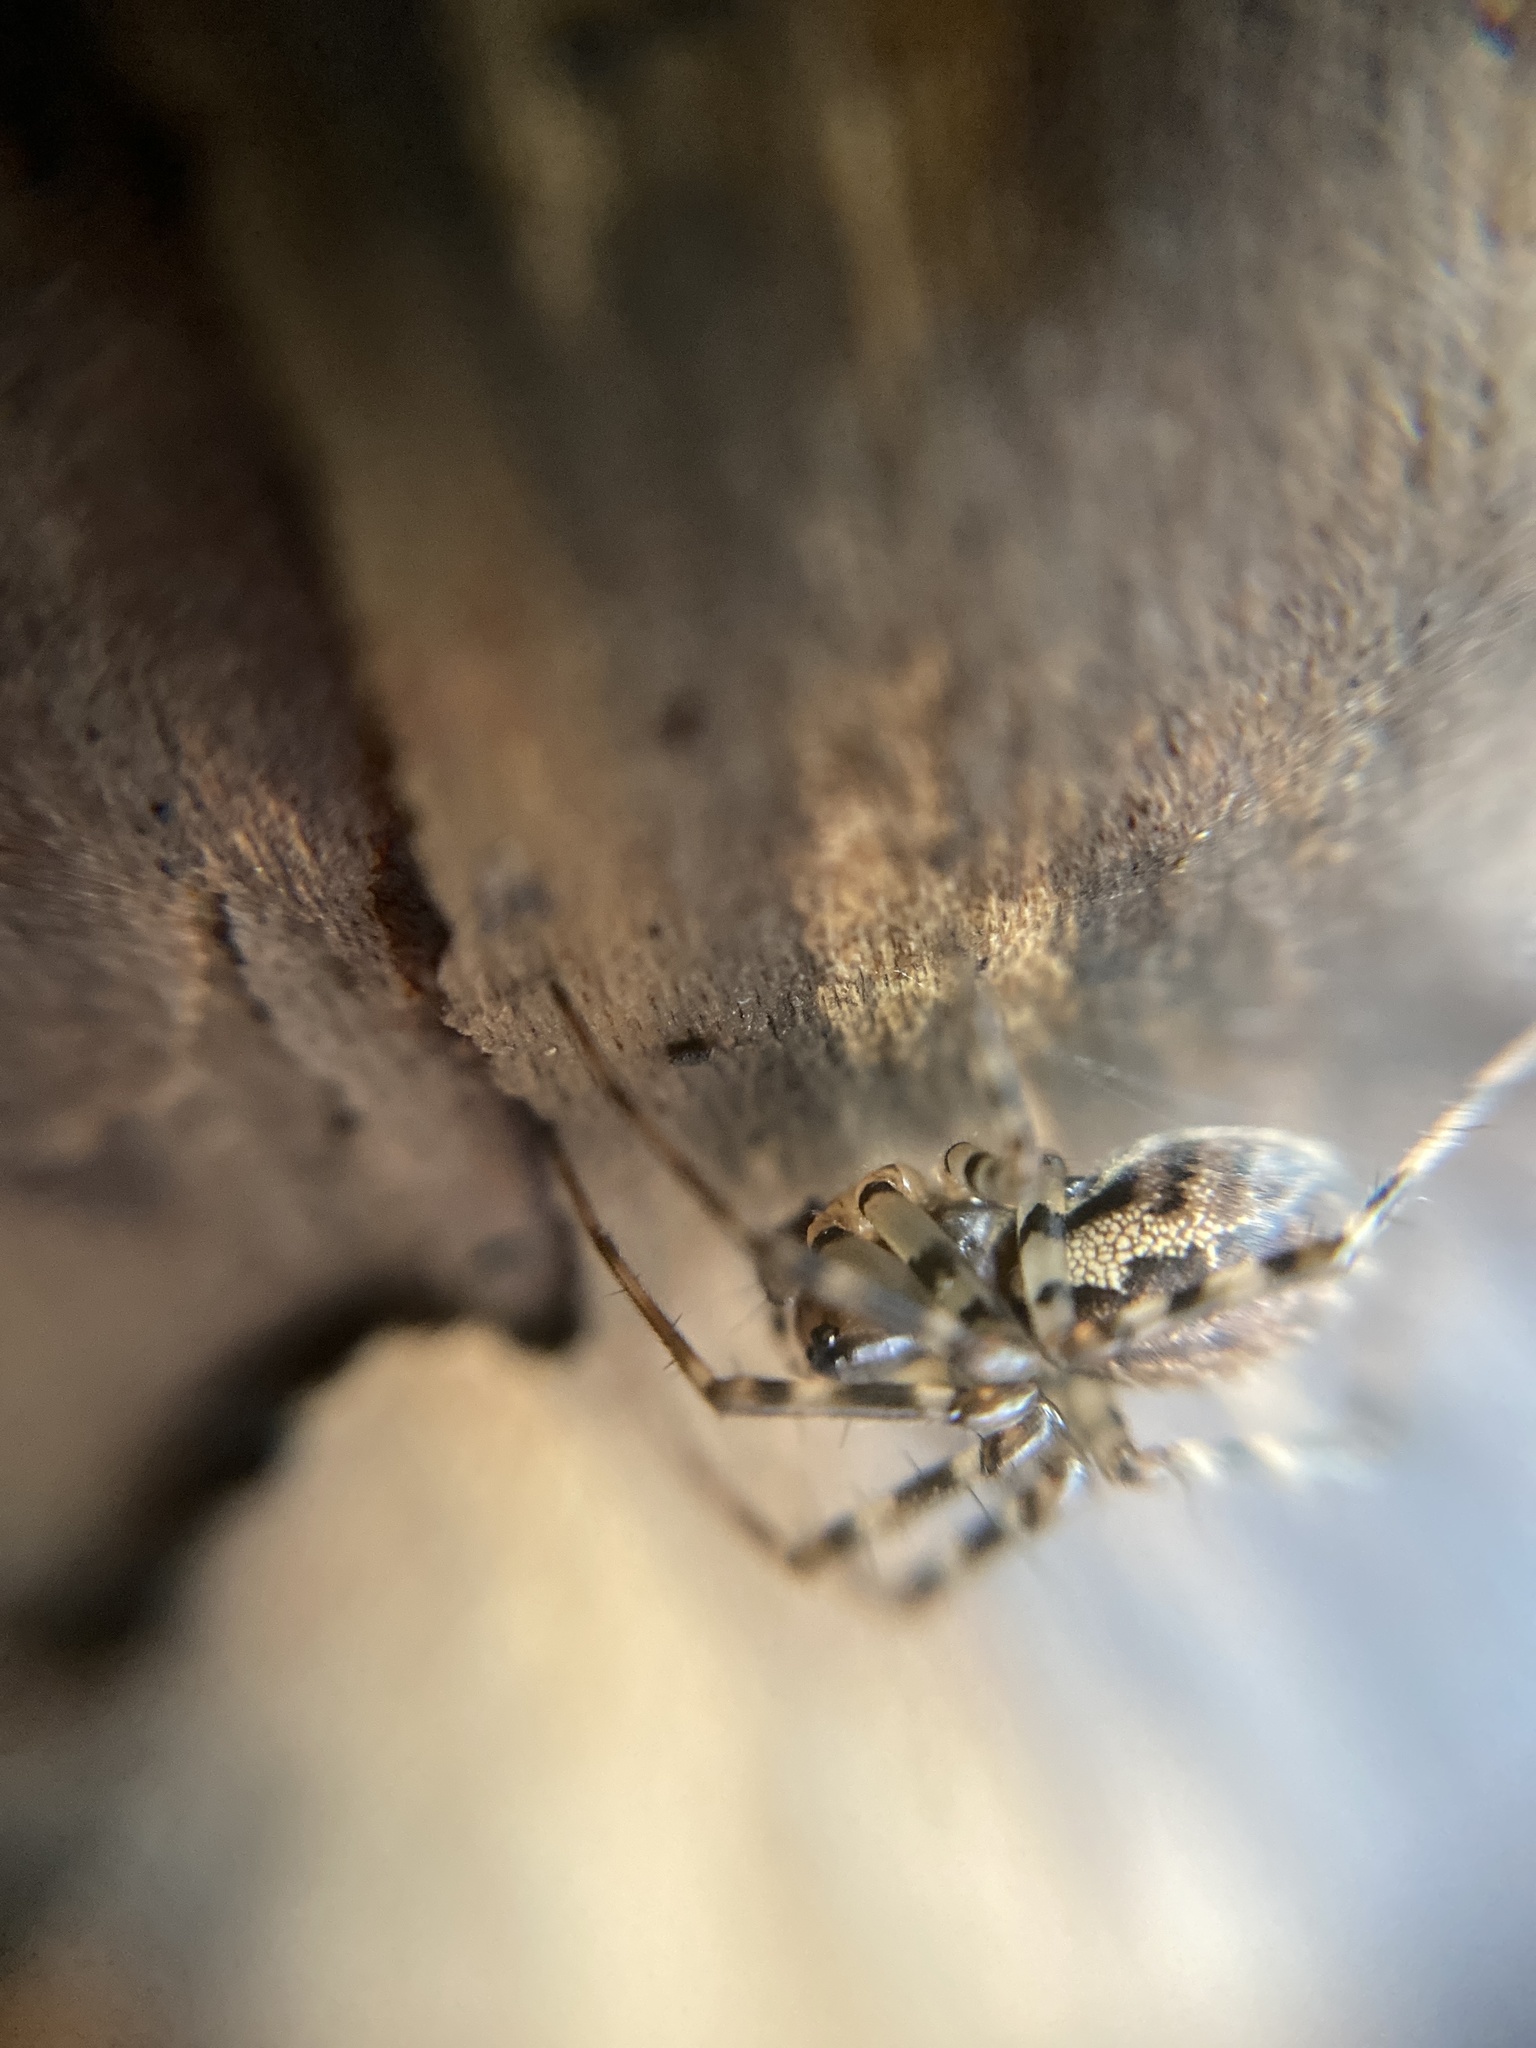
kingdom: Animalia
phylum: Arthropoda
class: Arachnida
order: Araneae
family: Linyphiidae
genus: Neriene
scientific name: Neriene montana
